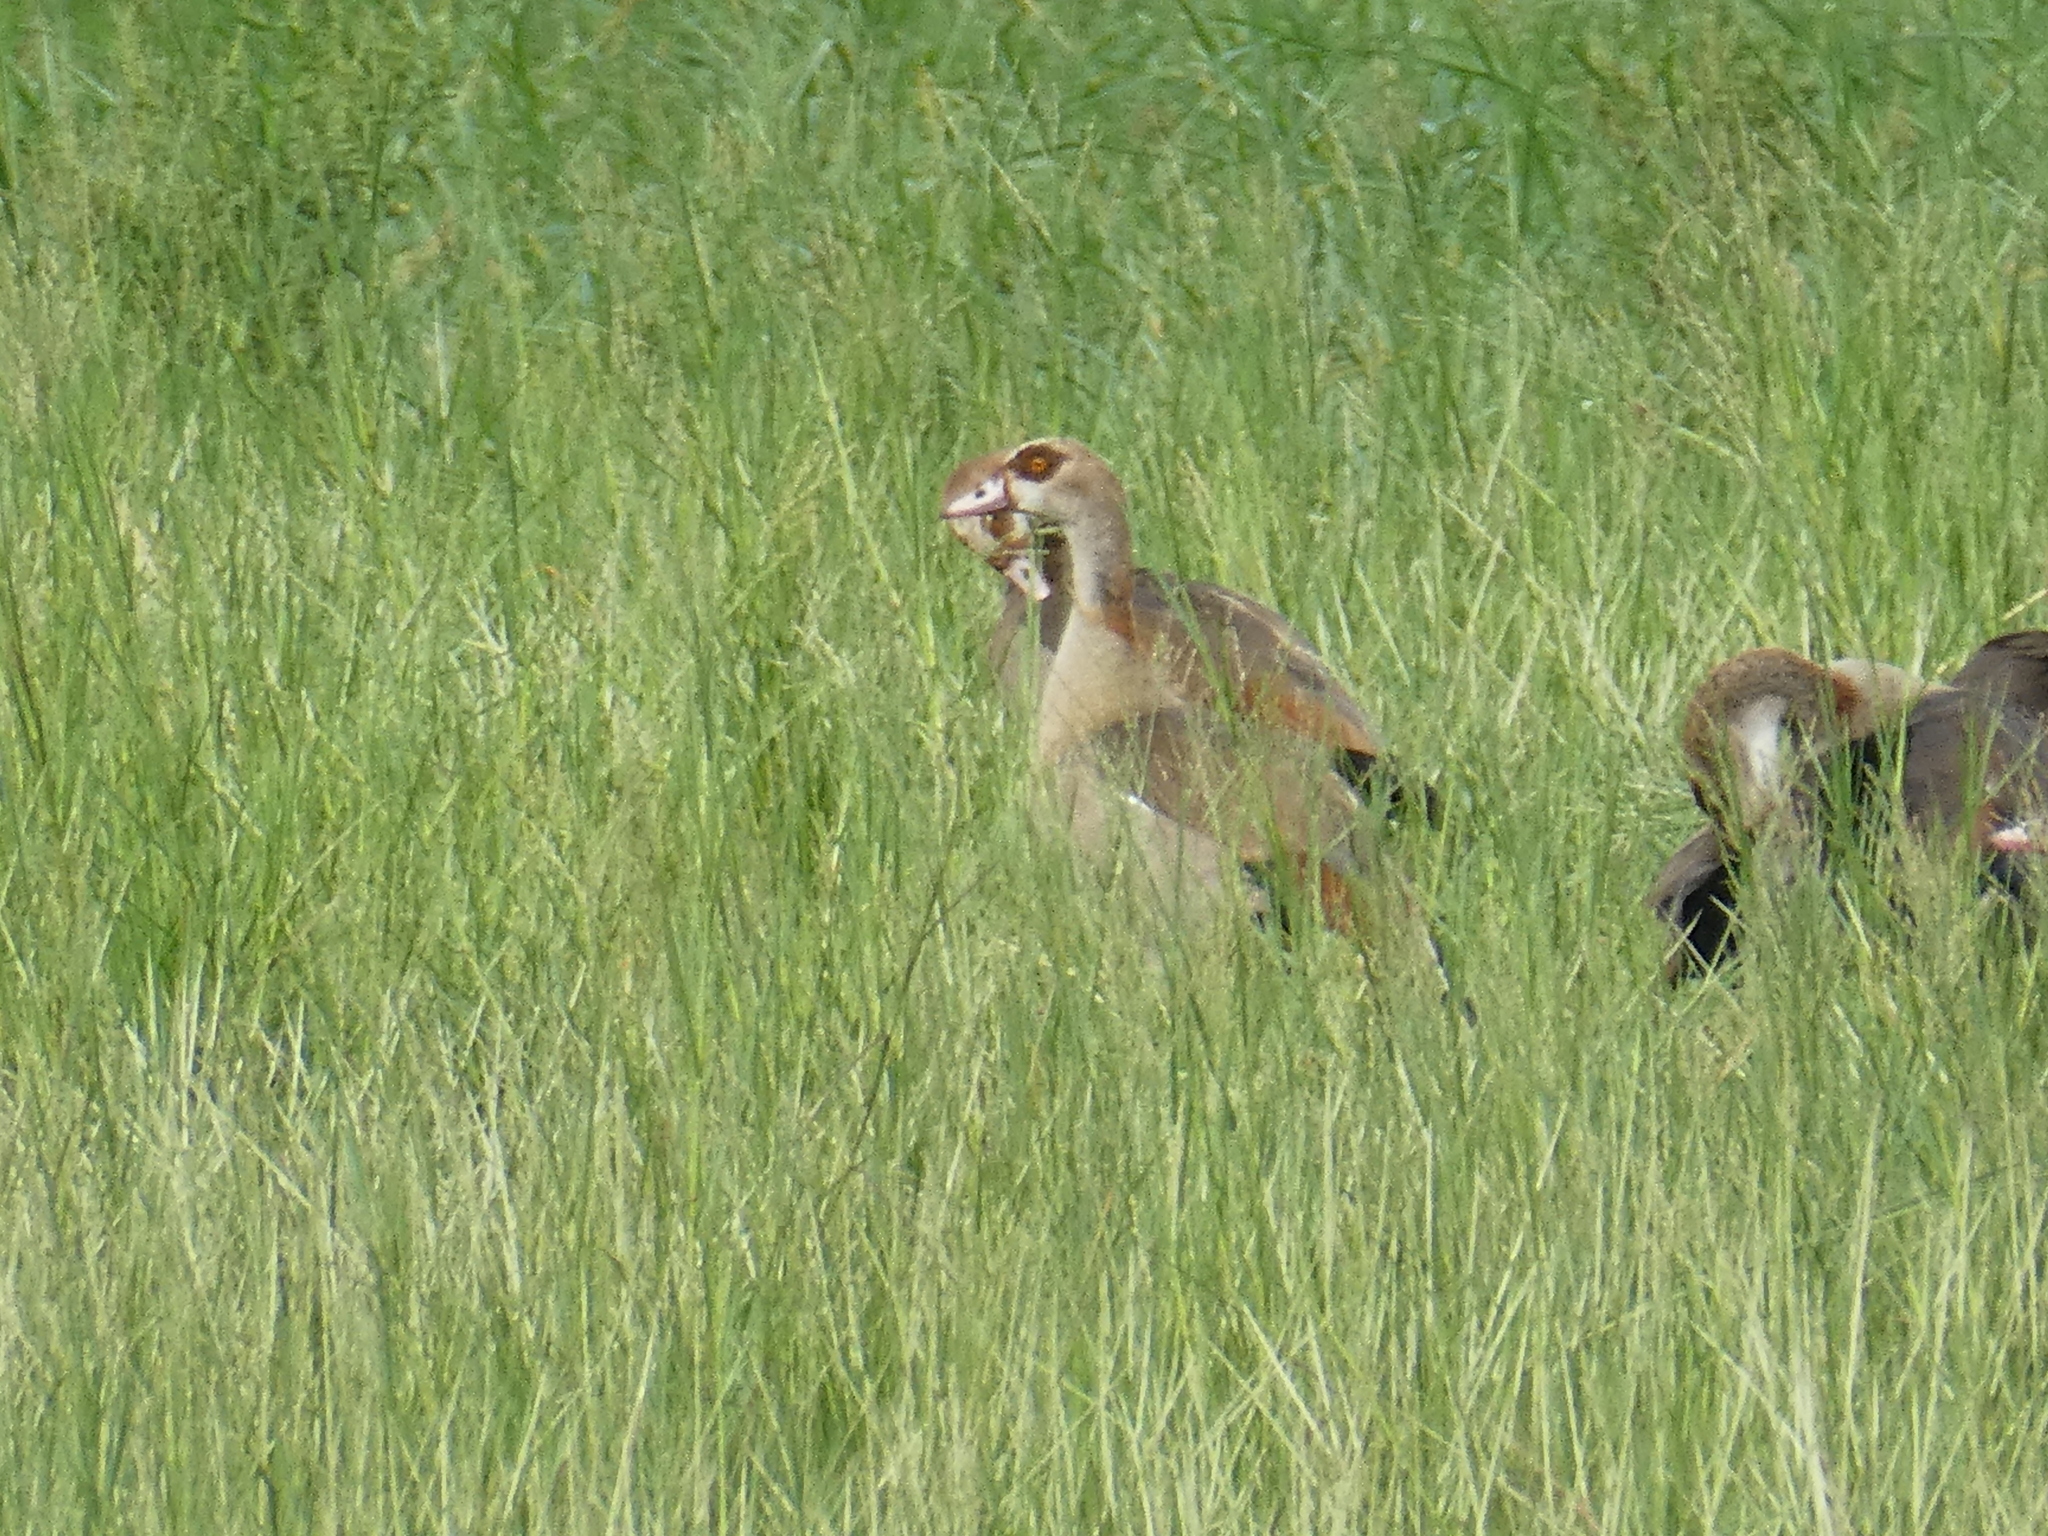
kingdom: Animalia
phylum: Chordata
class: Aves
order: Anseriformes
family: Anatidae
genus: Alopochen
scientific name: Alopochen aegyptiaca
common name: Egyptian goose
